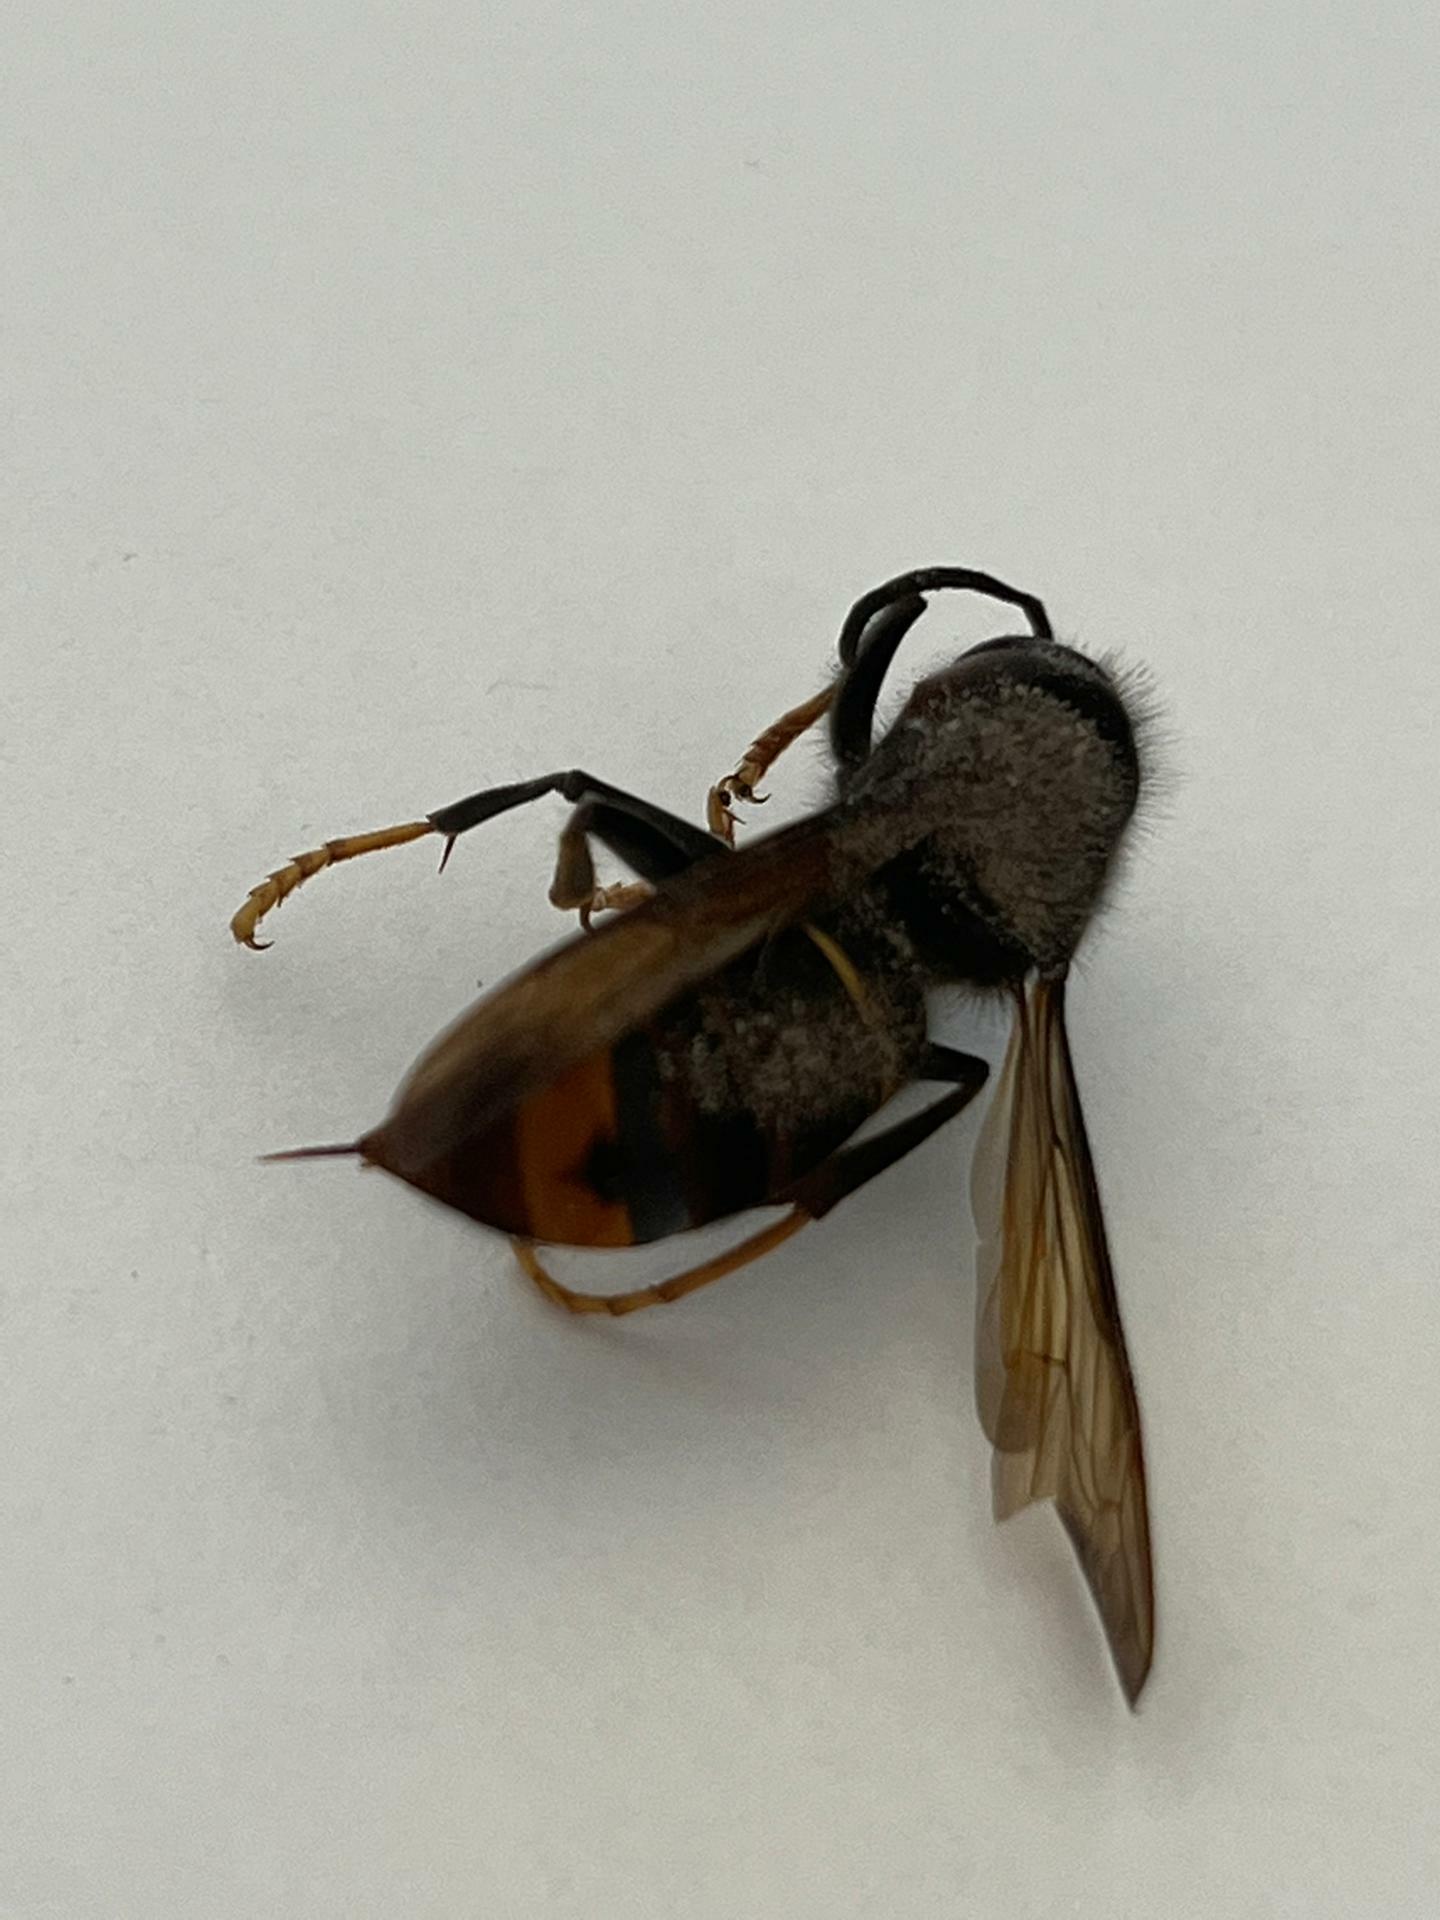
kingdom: Animalia
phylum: Arthropoda
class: Insecta
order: Hymenoptera
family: Vespidae
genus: Vespa
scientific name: Vespa velutina
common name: Asian hornet
